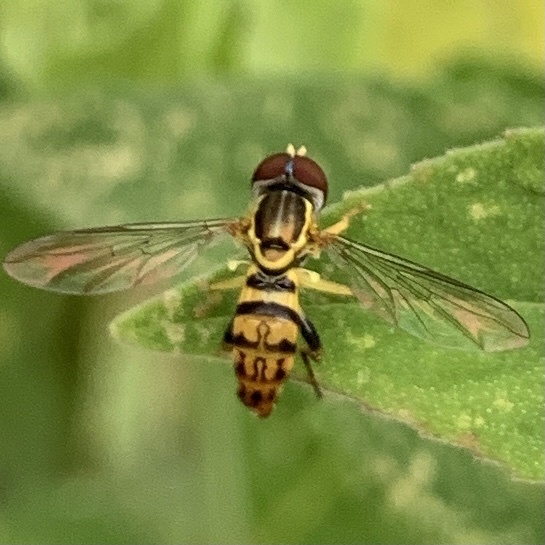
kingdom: Animalia
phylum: Arthropoda
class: Insecta
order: Diptera
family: Syrphidae
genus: Toxomerus
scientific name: Toxomerus geminatus
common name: Eastern calligrapher
